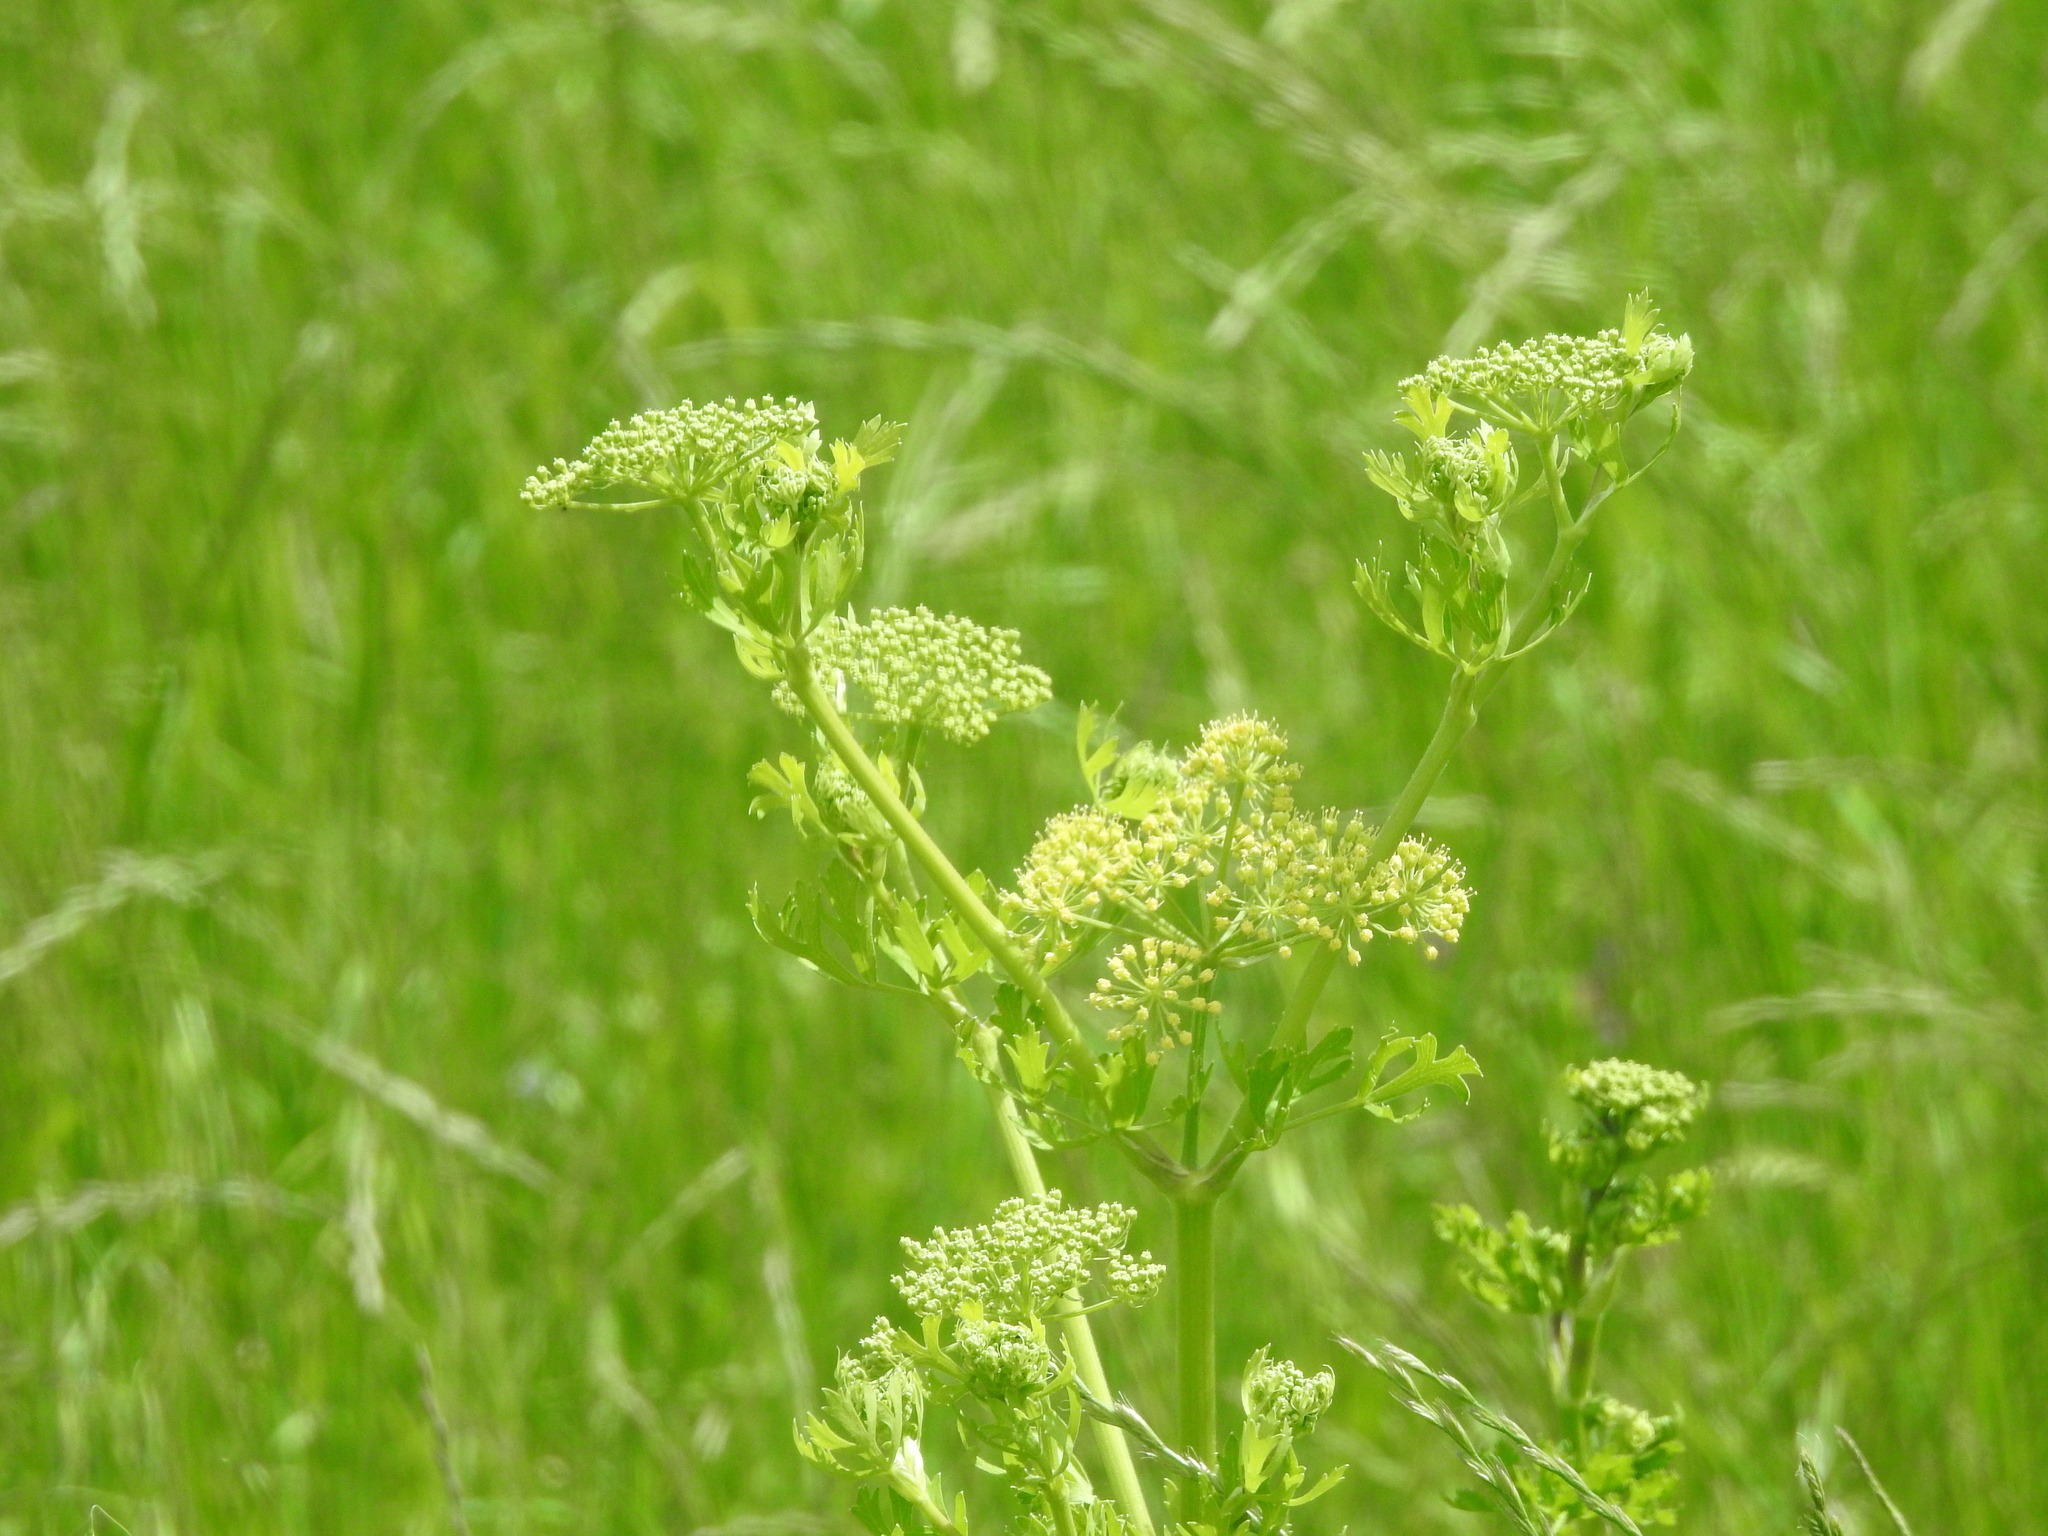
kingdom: Plantae
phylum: Tracheophyta
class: Magnoliopsida
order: Apiales
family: Apiaceae
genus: Polytaenia
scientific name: Polytaenia texana
